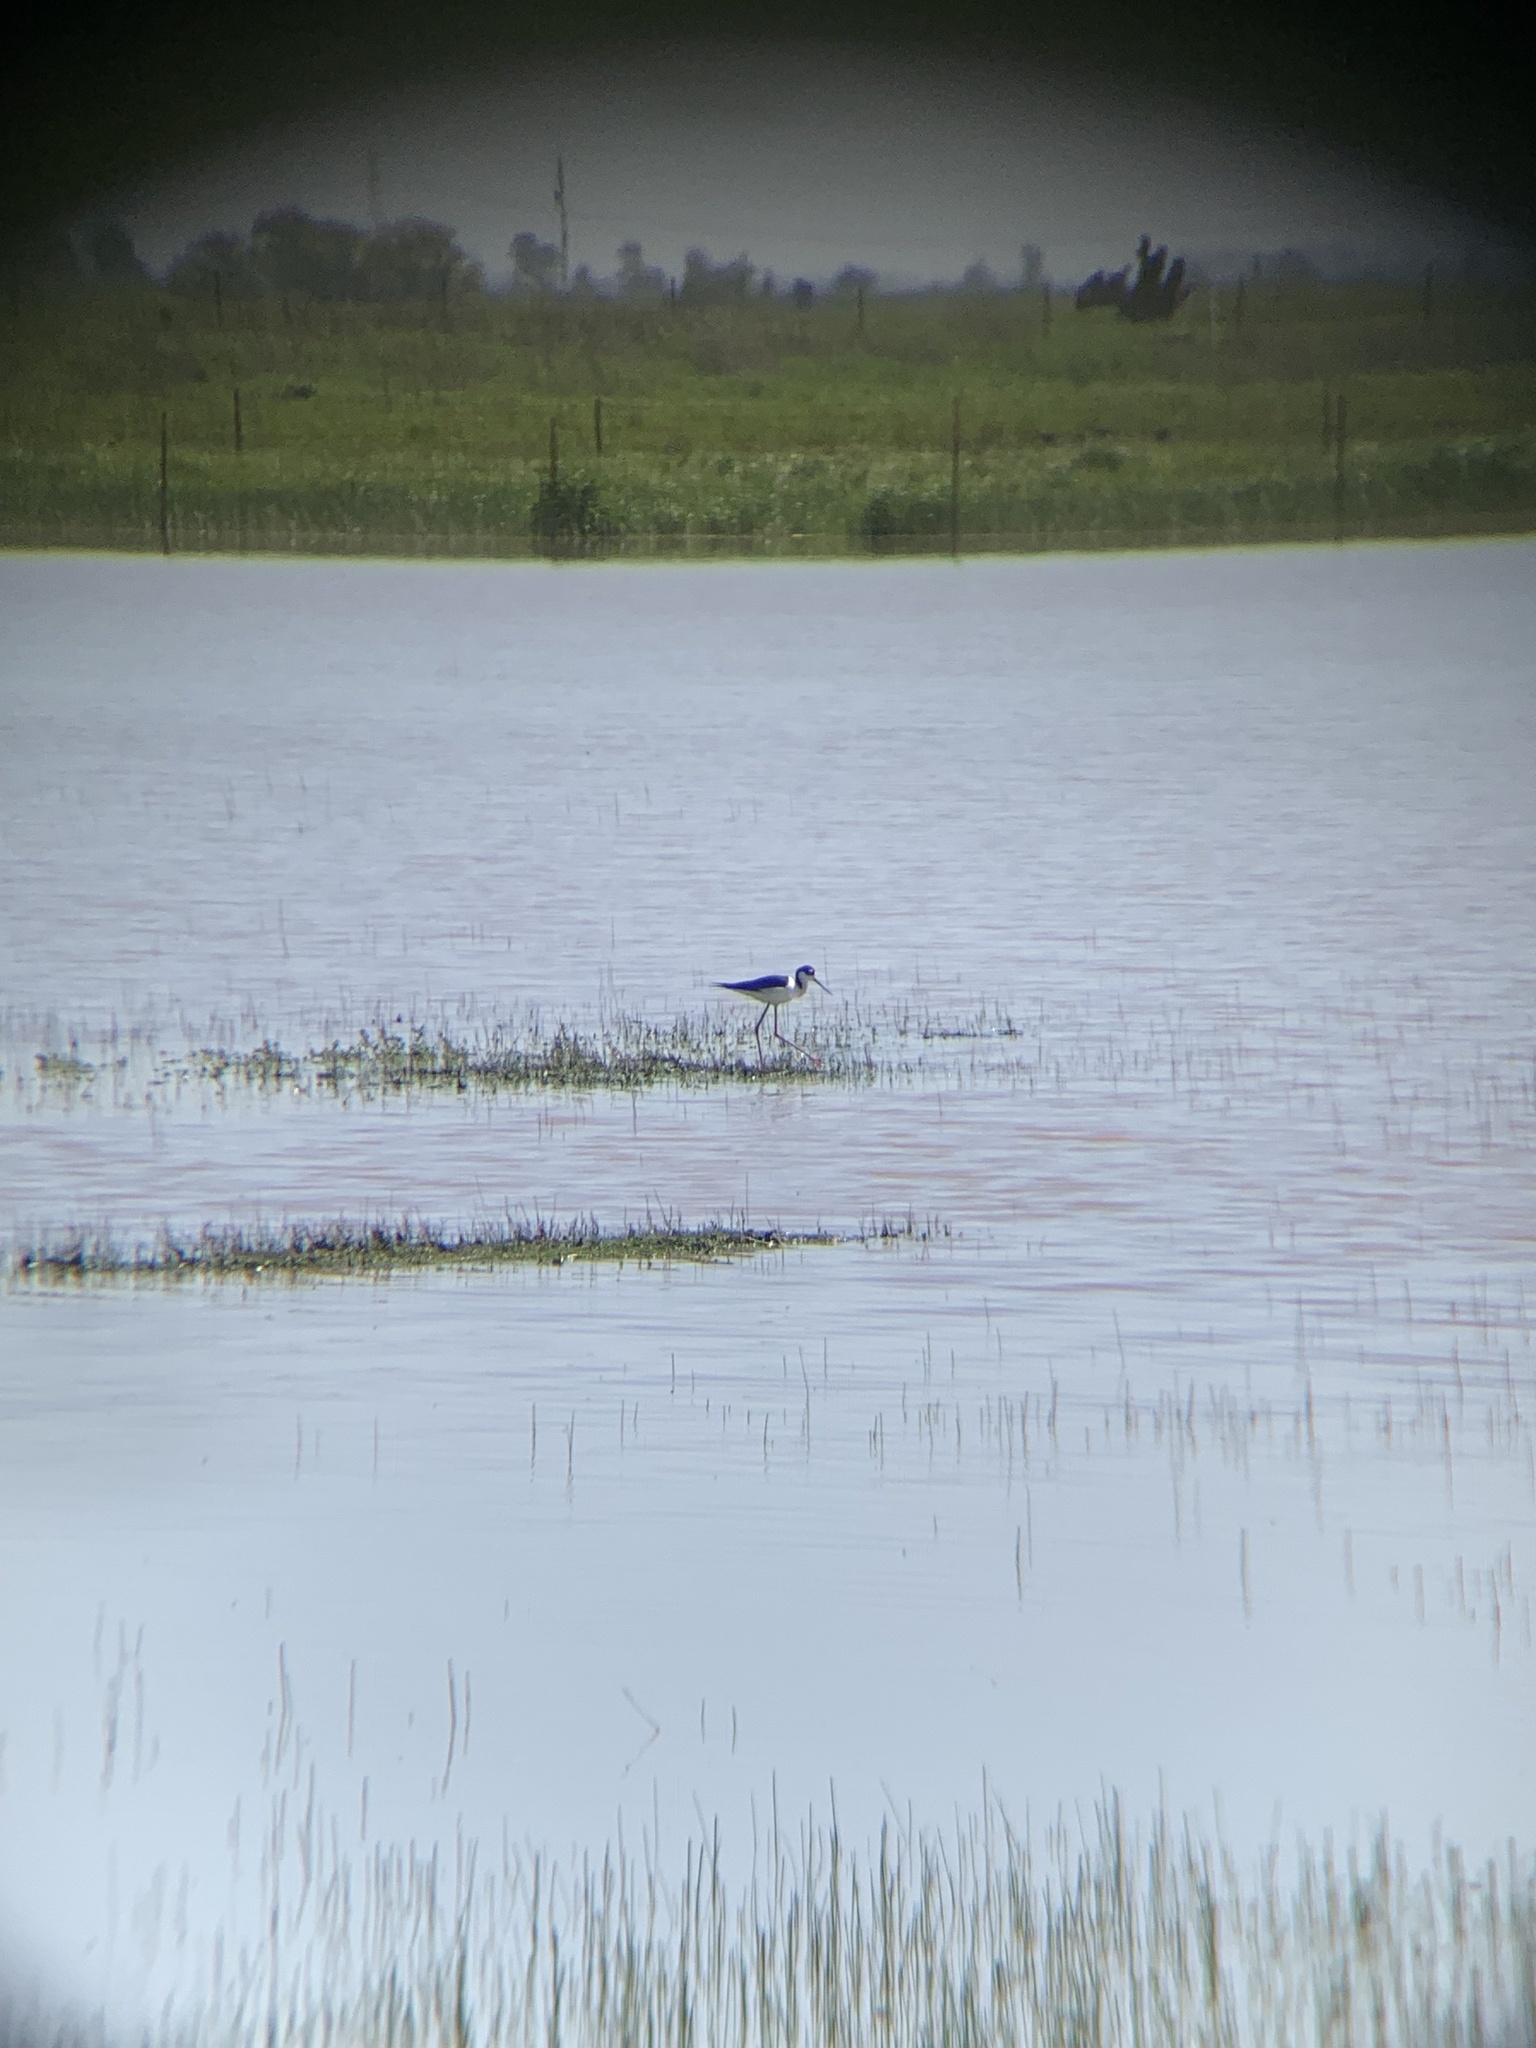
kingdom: Animalia
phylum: Chordata
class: Aves
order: Charadriiformes
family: Recurvirostridae
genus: Himantopus
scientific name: Himantopus mexicanus
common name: Black-necked stilt
